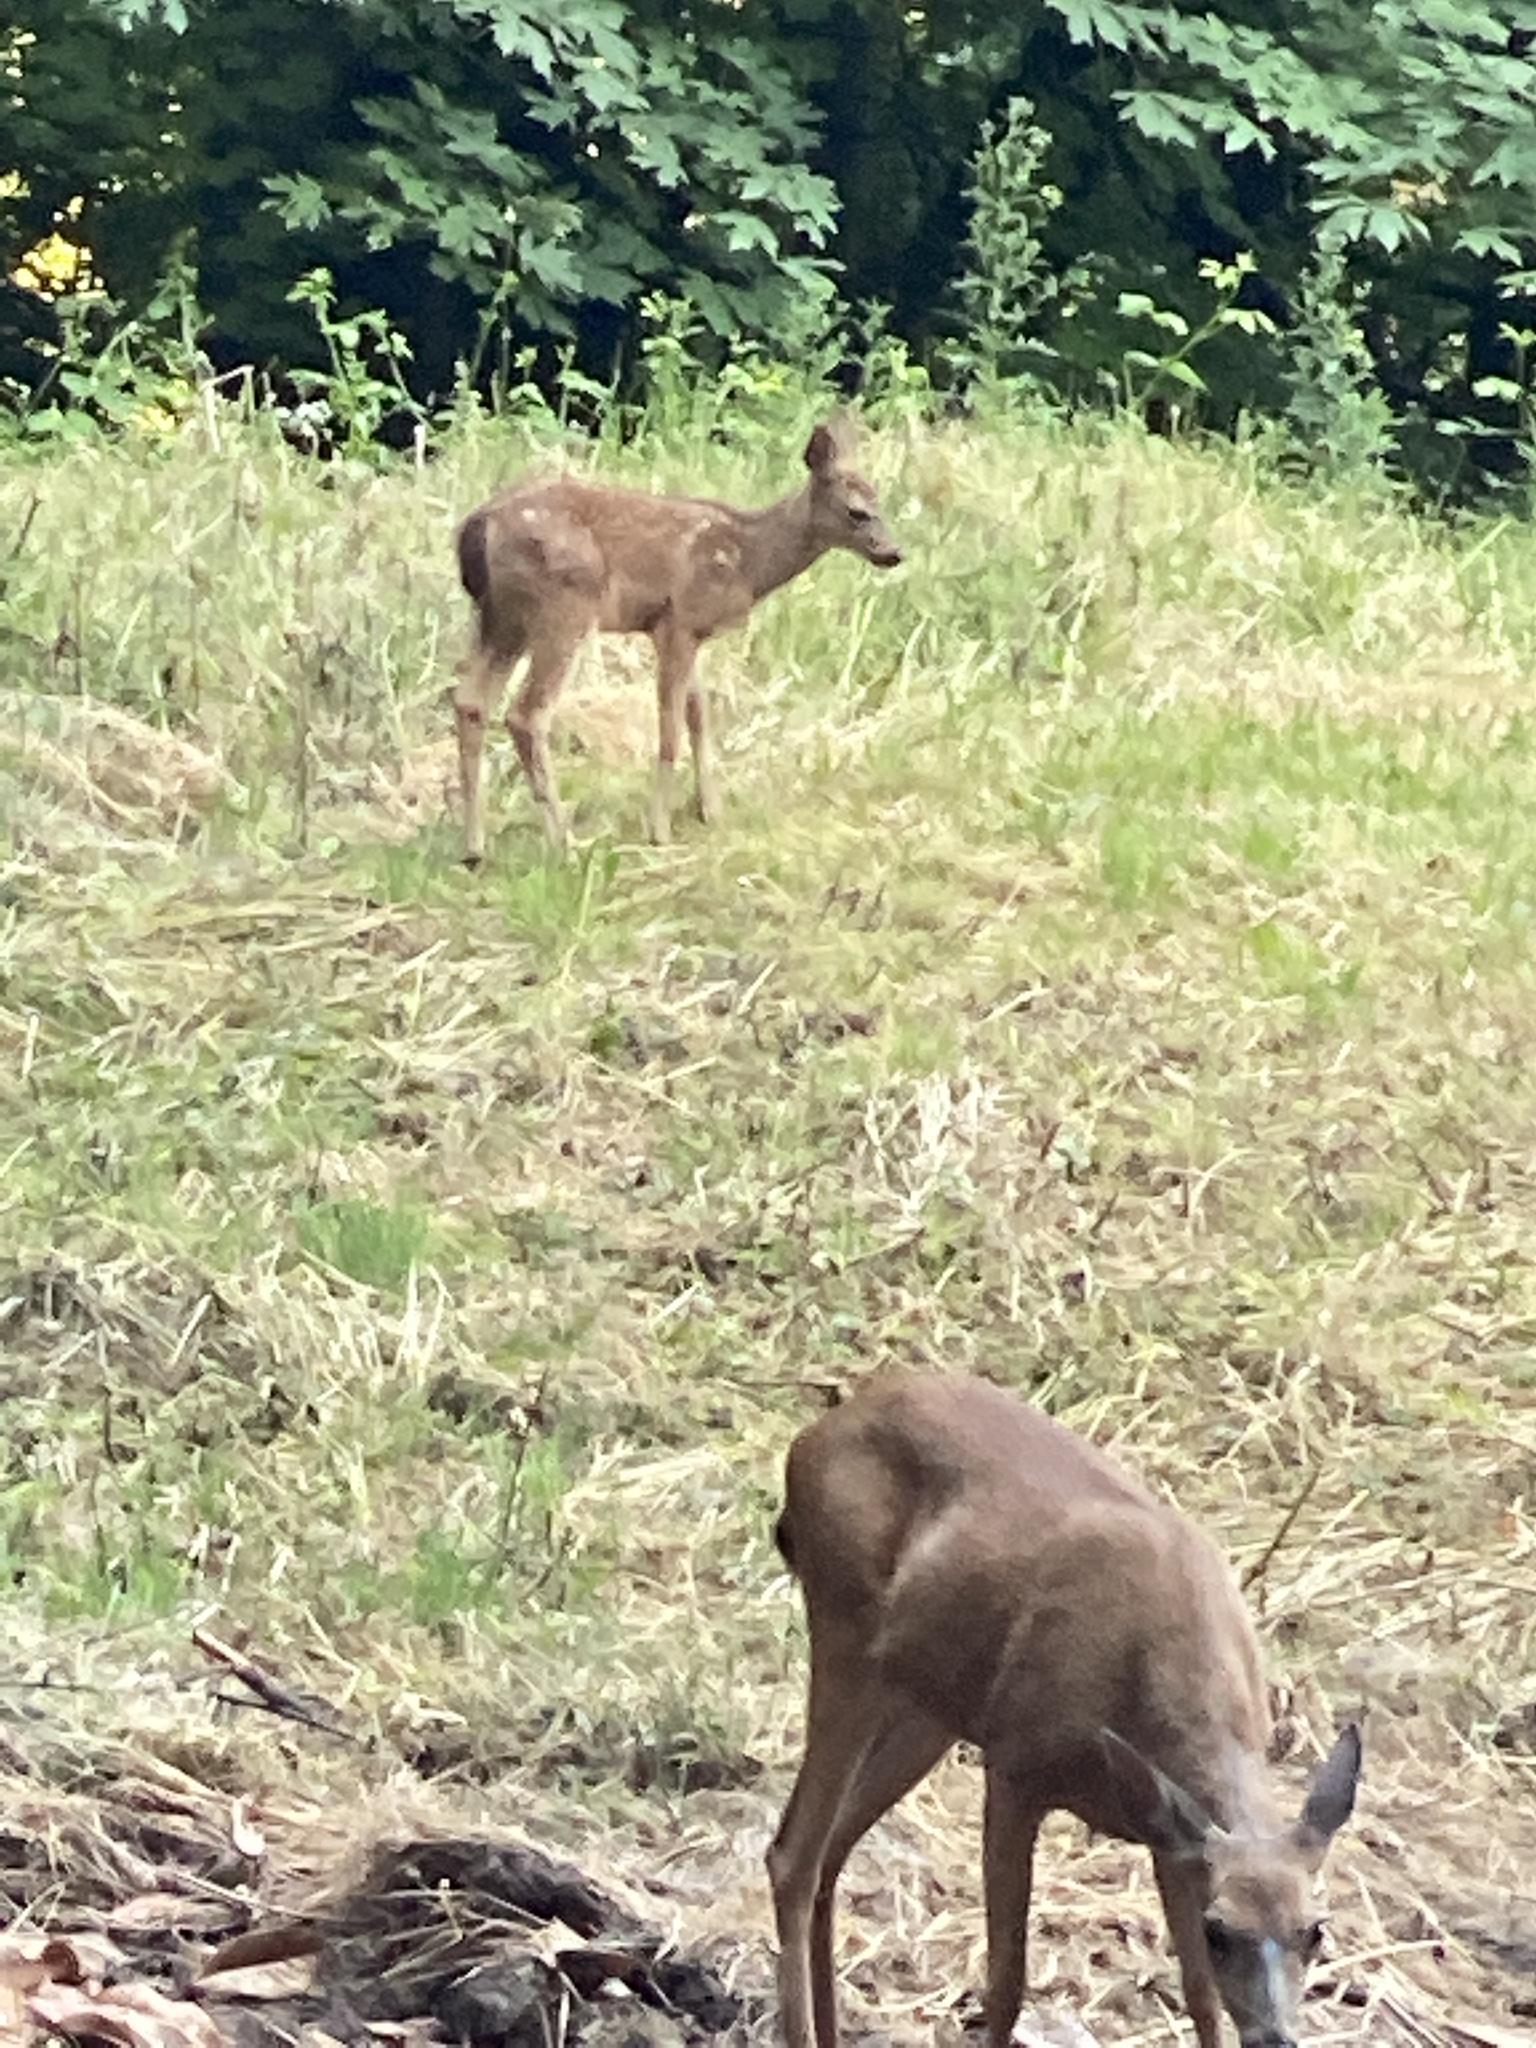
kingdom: Animalia
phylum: Chordata
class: Mammalia
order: Artiodactyla
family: Cervidae
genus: Odocoileus
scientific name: Odocoileus hemionus
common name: Mule deer
